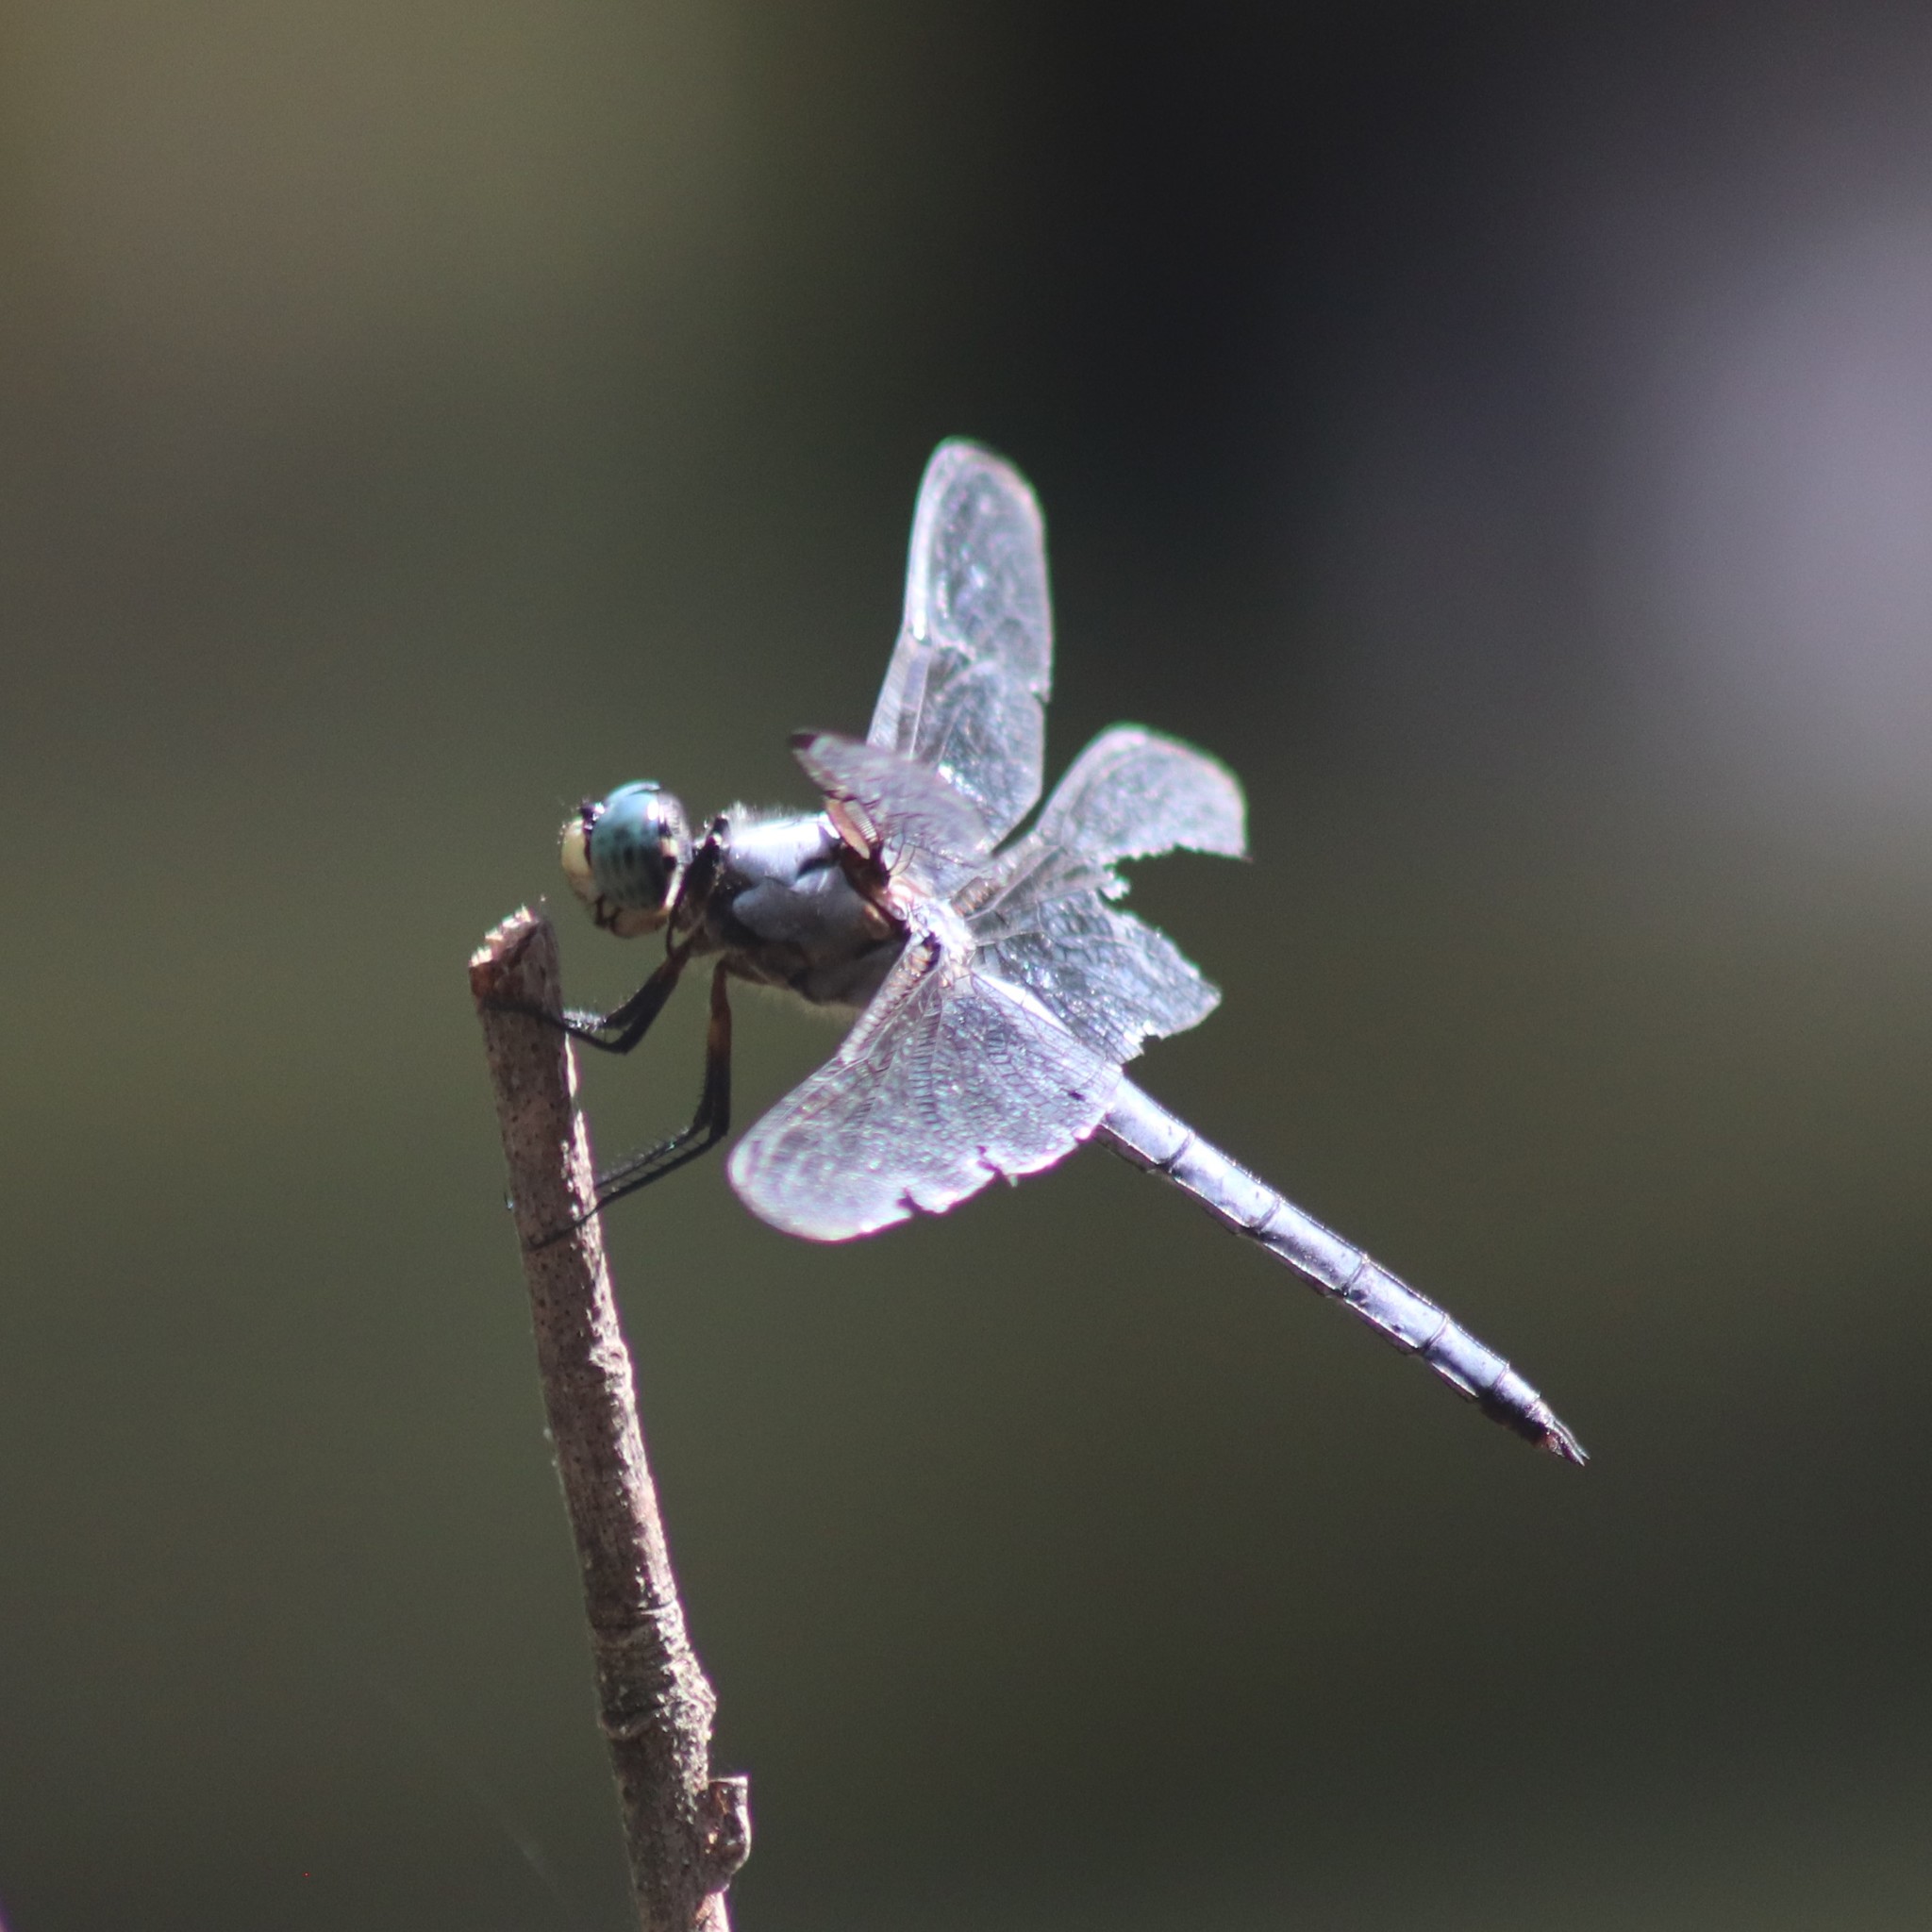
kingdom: Animalia
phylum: Arthropoda
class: Insecta
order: Odonata
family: Libellulidae
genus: Libellula
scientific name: Libellula vibrans
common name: Great blue skimmer
